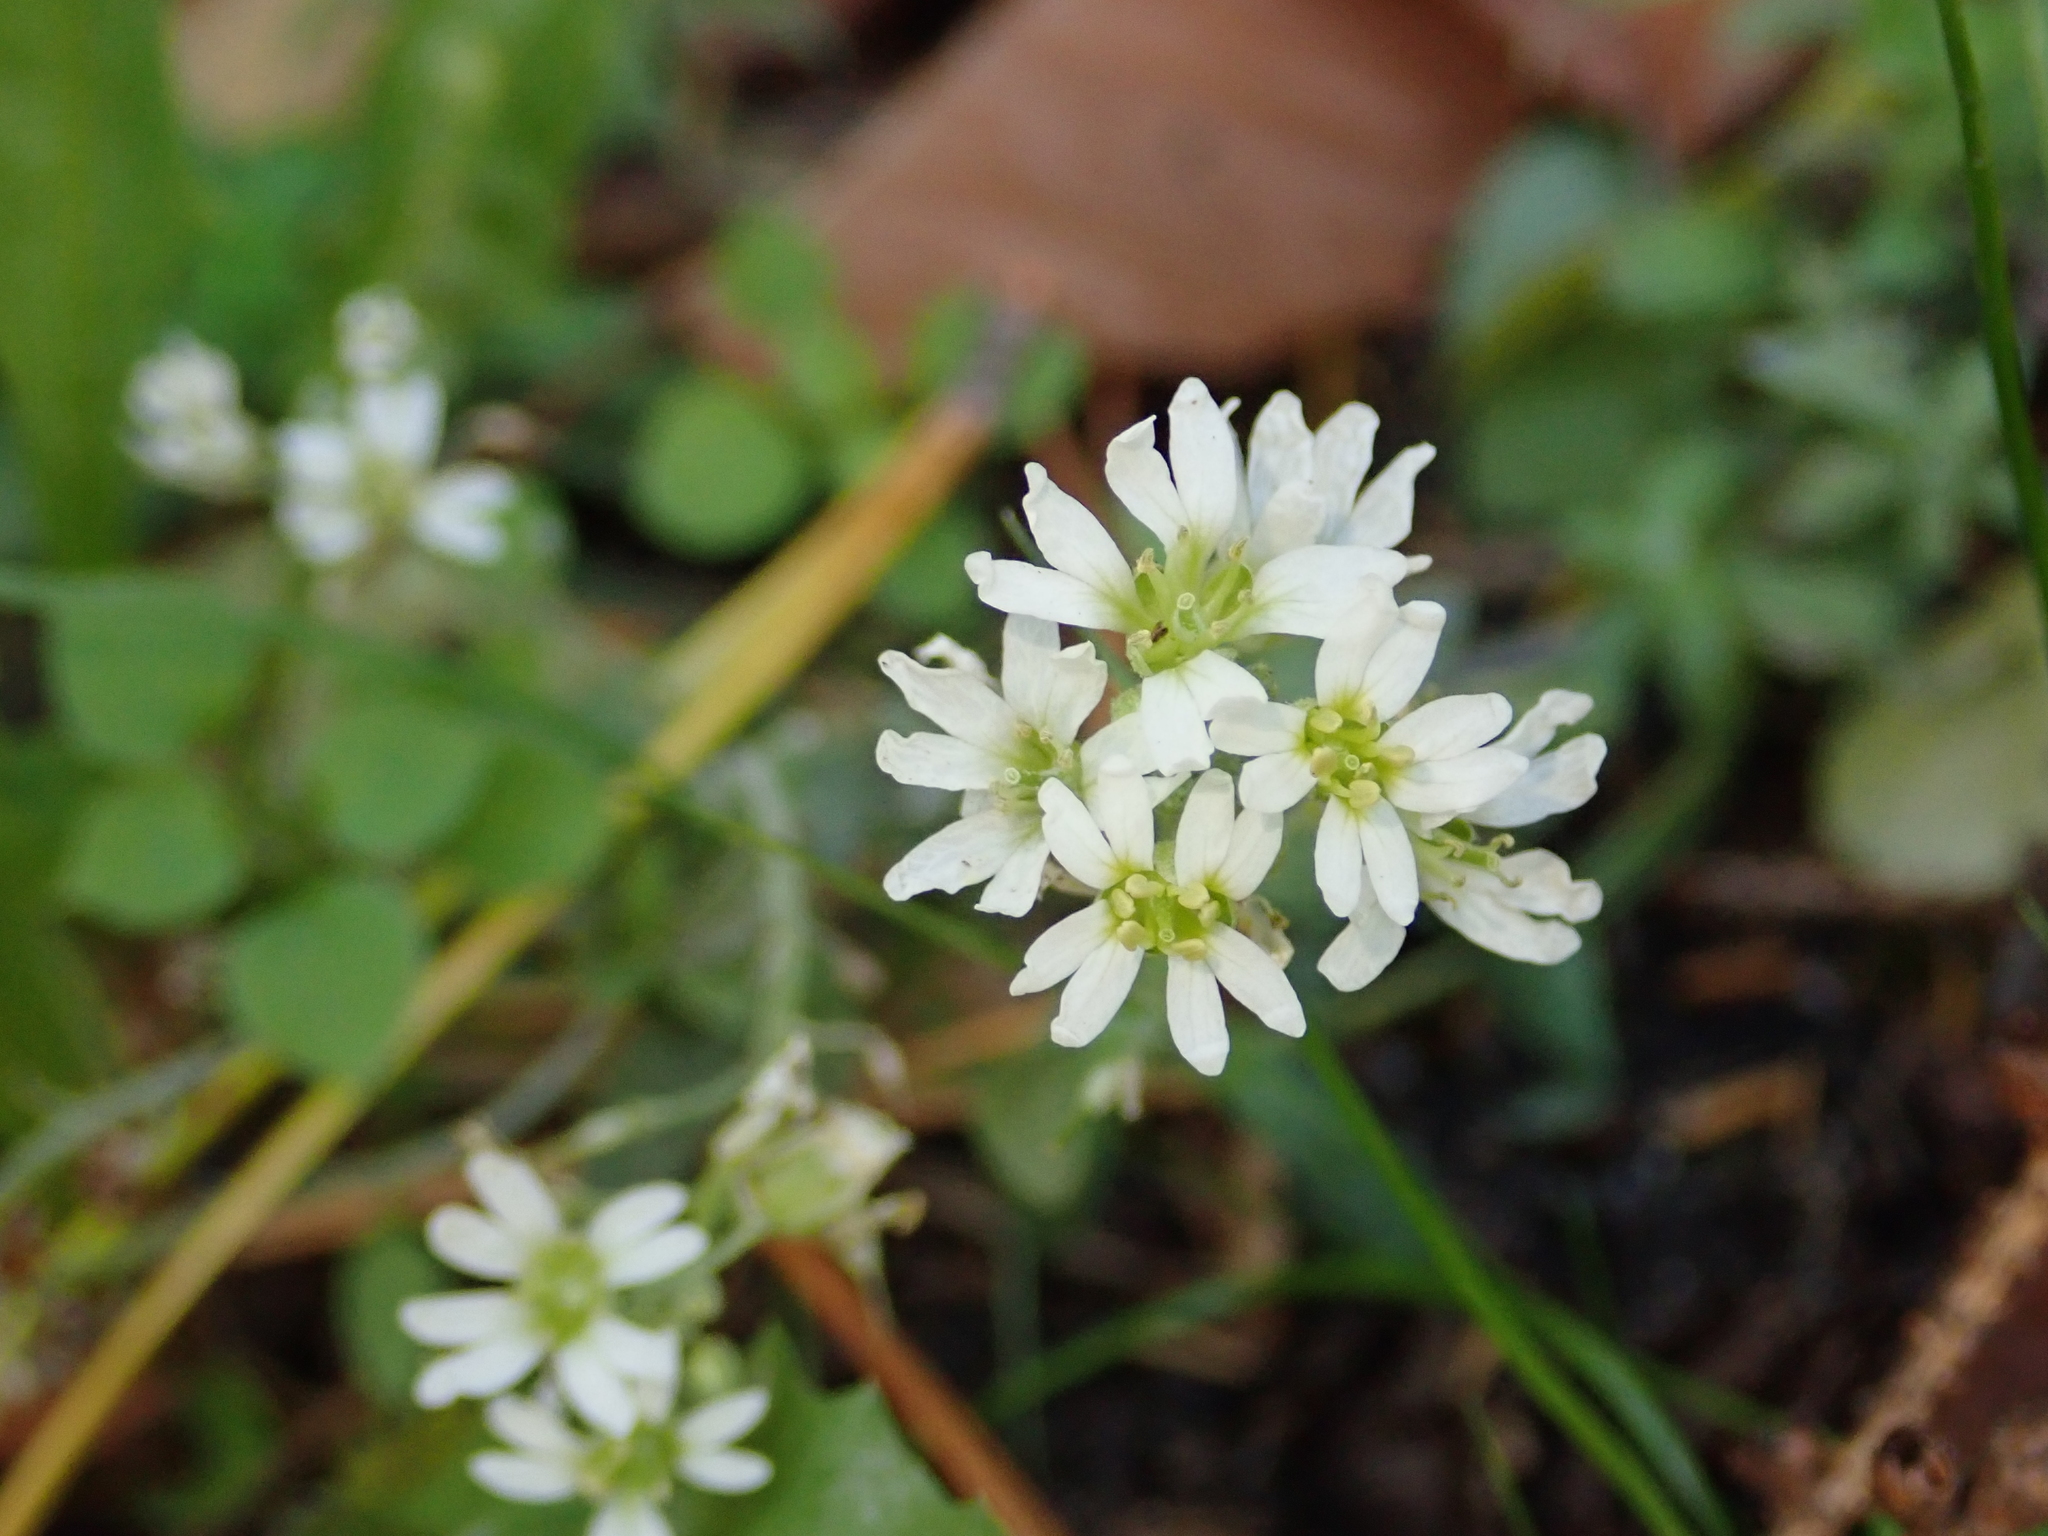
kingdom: Plantae
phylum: Tracheophyta
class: Magnoliopsida
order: Brassicales
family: Brassicaceae
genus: Berteroa
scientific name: Berteroa incana
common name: Hoary alison
